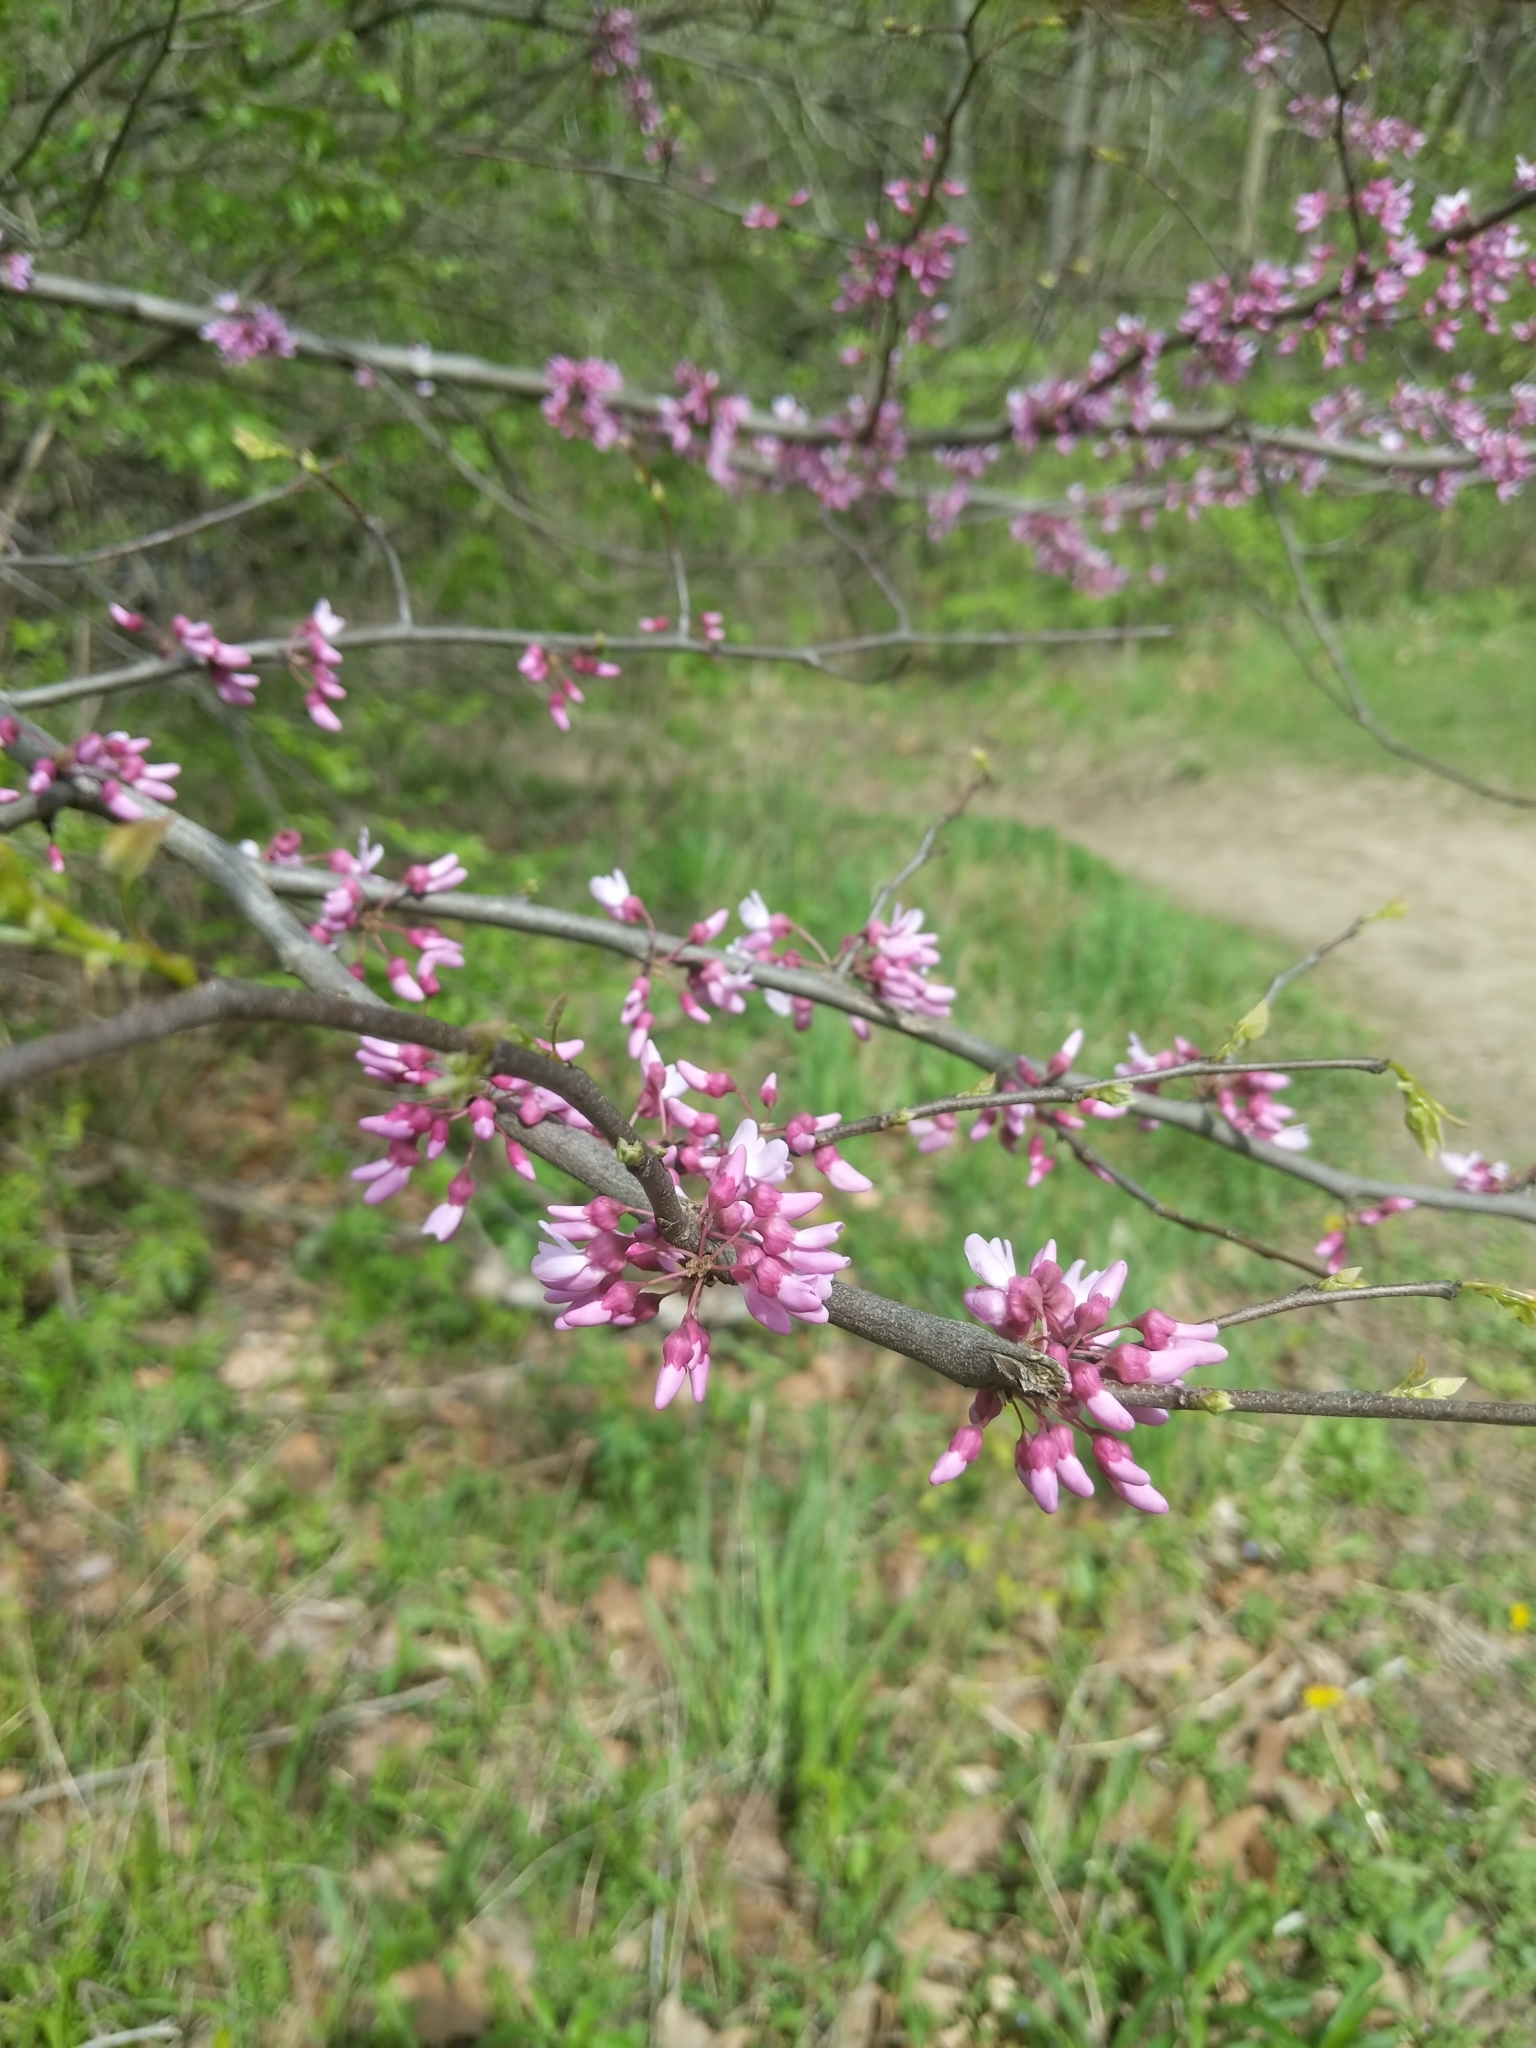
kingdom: Plantae
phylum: Tracheophyta
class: Magnoliopsida
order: Fabales
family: Fabaceae
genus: Cercis
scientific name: Cercis canadensis
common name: Eastern redbud
